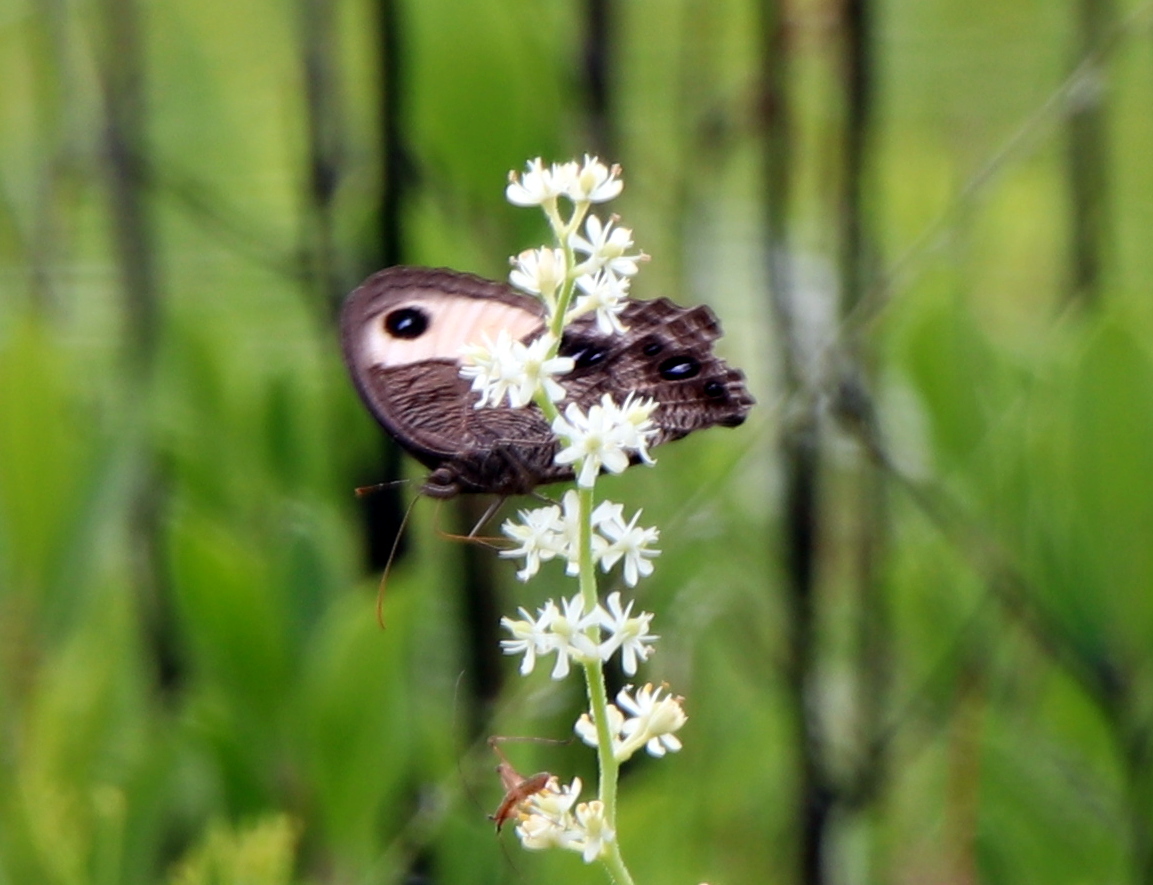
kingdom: Animalia
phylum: Arthropoda
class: Insecta
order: Lepidoptera
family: Nymphalidae
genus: Cercyonis
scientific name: Cercyonis pegala
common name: Common wood-nymph
